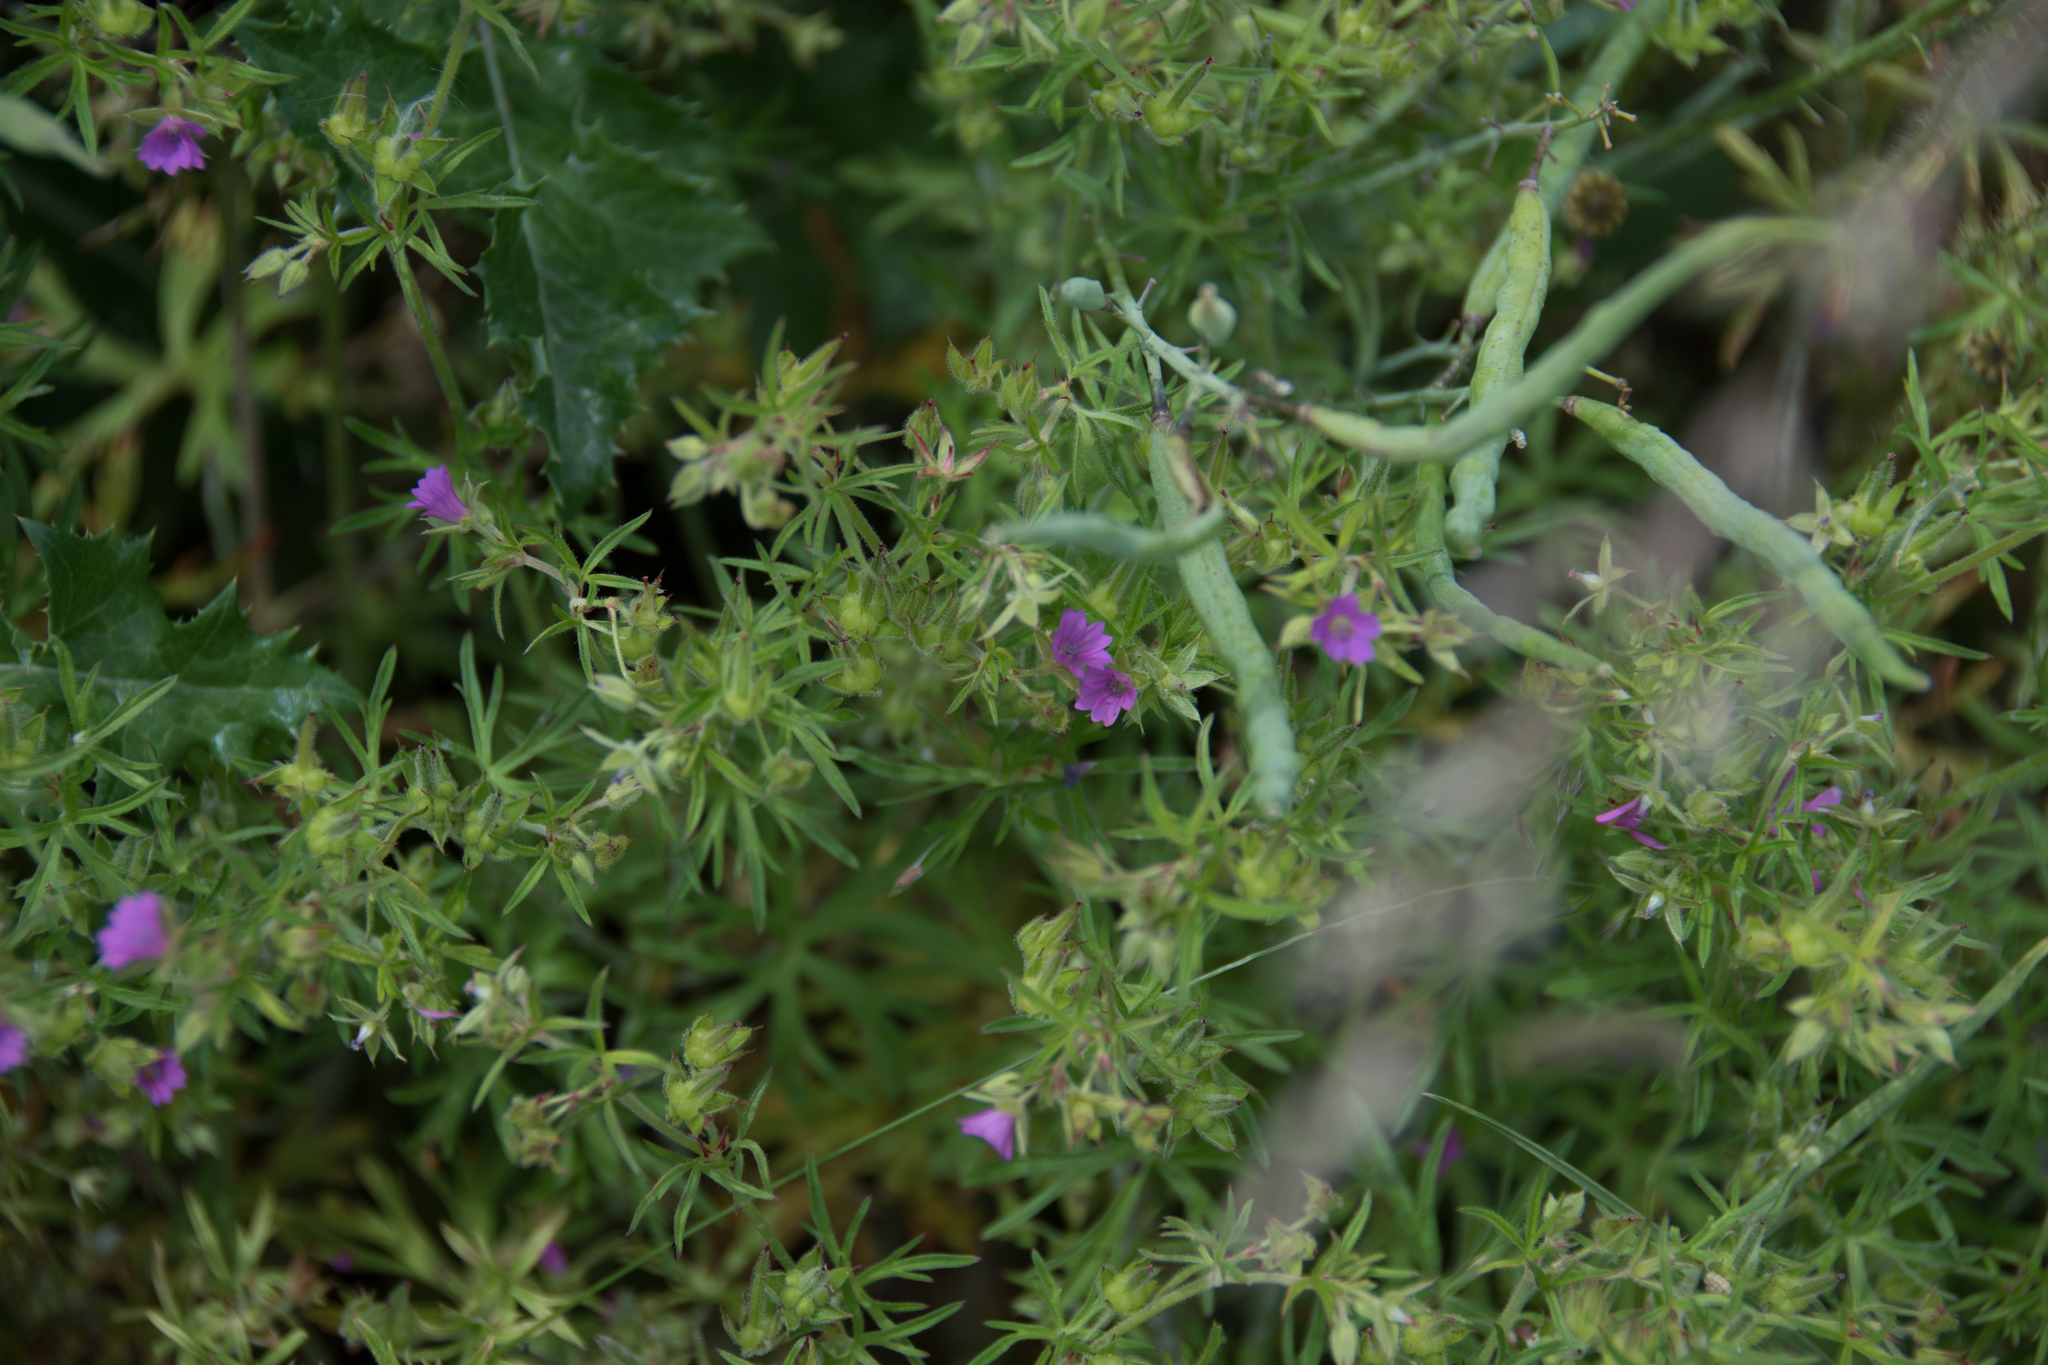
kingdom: Plantae
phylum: Tracheophyta
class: Magnoliopsida
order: Geraniales
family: Geraniaceae
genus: Geranium
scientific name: Geranium dissectum
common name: Cut-leaved crane's-bill
